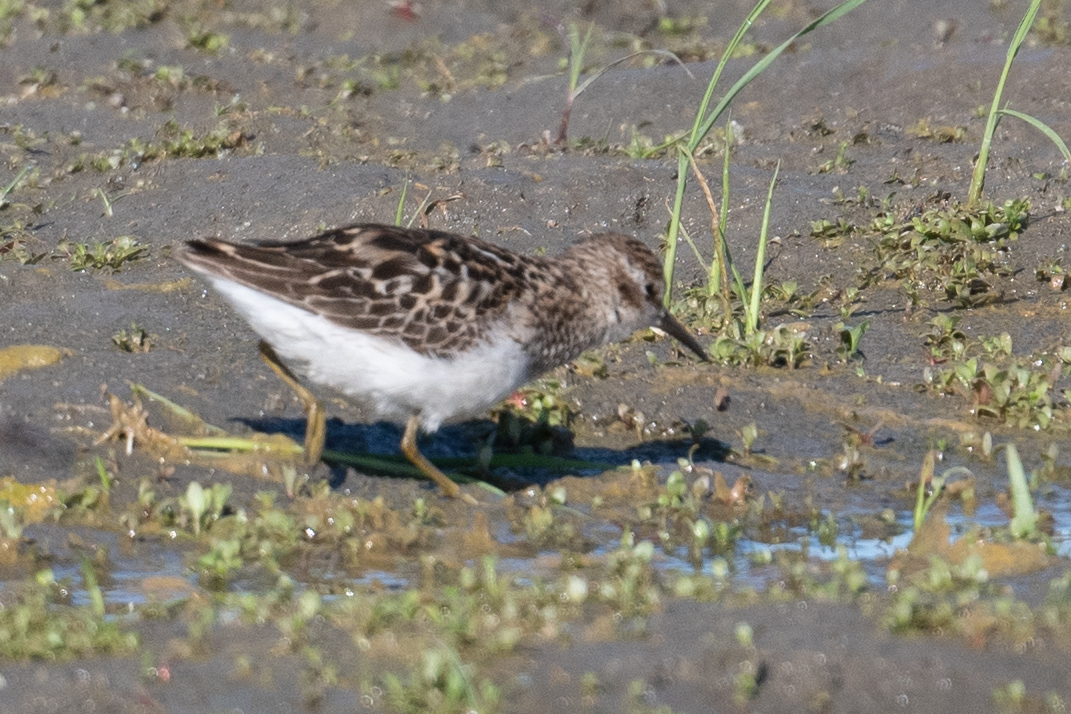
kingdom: Animalia
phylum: Chordata
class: Aves
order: Charadriiformes
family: Scolopacidae
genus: Calidris
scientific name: Calidris minutilla
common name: Least sandpiper
